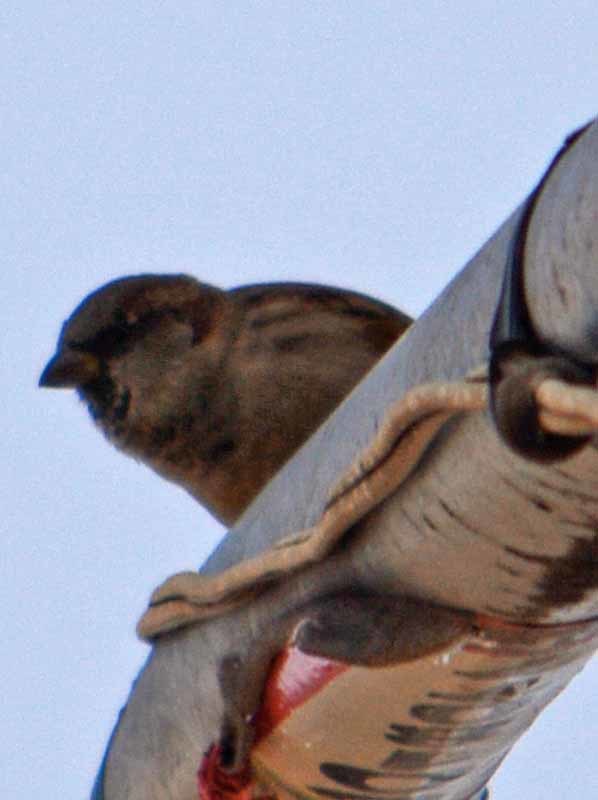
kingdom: Animalia
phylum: Chordata
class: Aves
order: Passeriformes
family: Passeridae
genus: Passer
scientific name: Passer domesticus
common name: House sparrow
